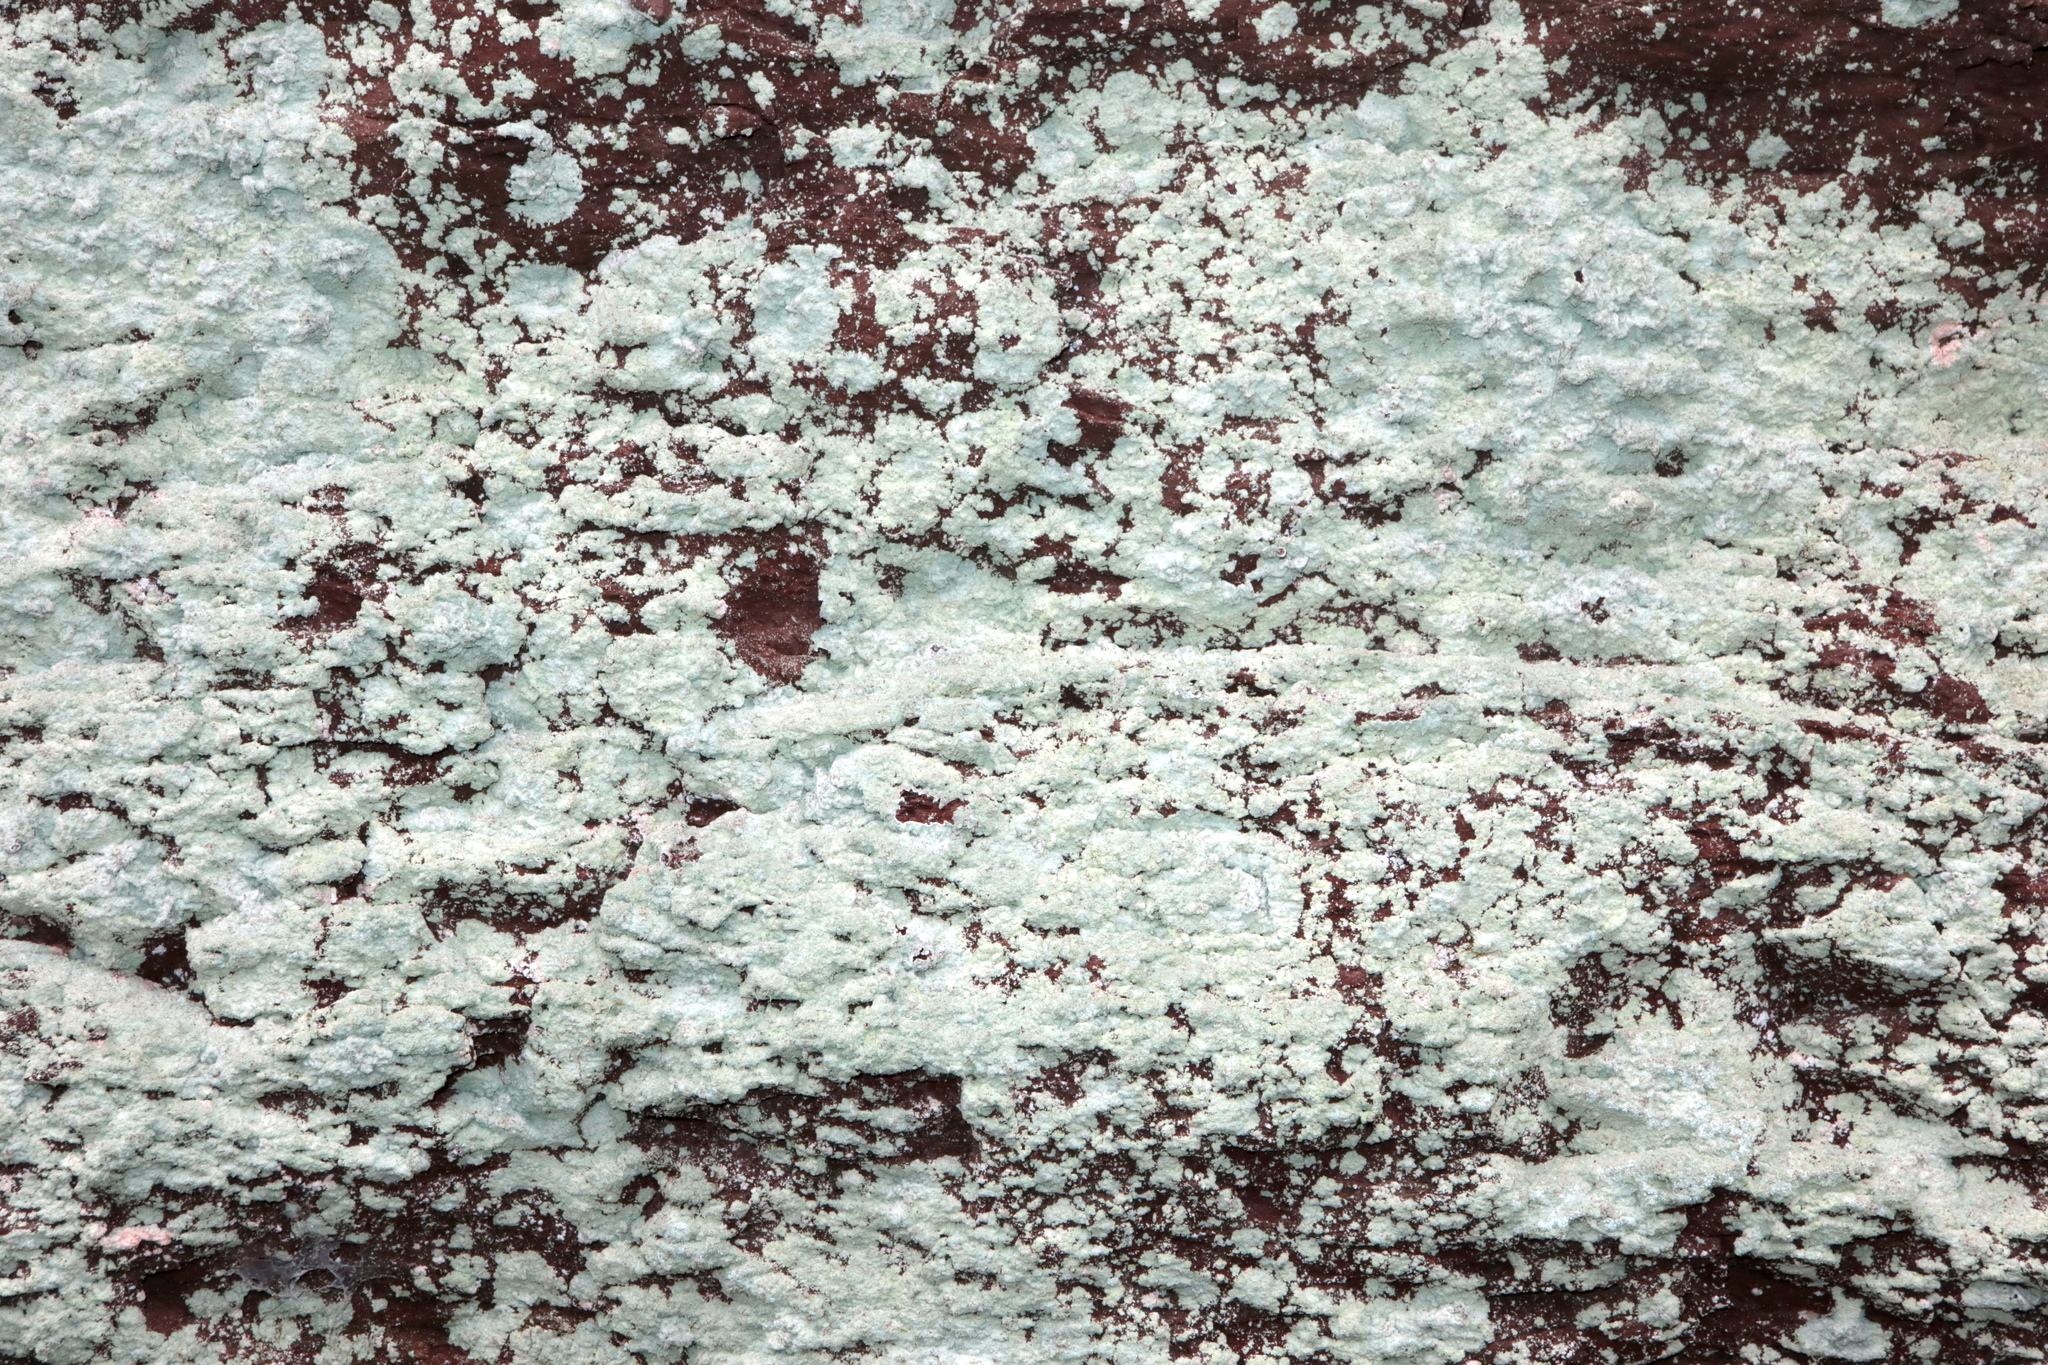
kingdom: Fungi
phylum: Ascomycota
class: Lecanoromycetes
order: Lecanorales
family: Stereocaulaceae
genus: Lepraria
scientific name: Lepraria lobificans
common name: Fluffy dust lichen
